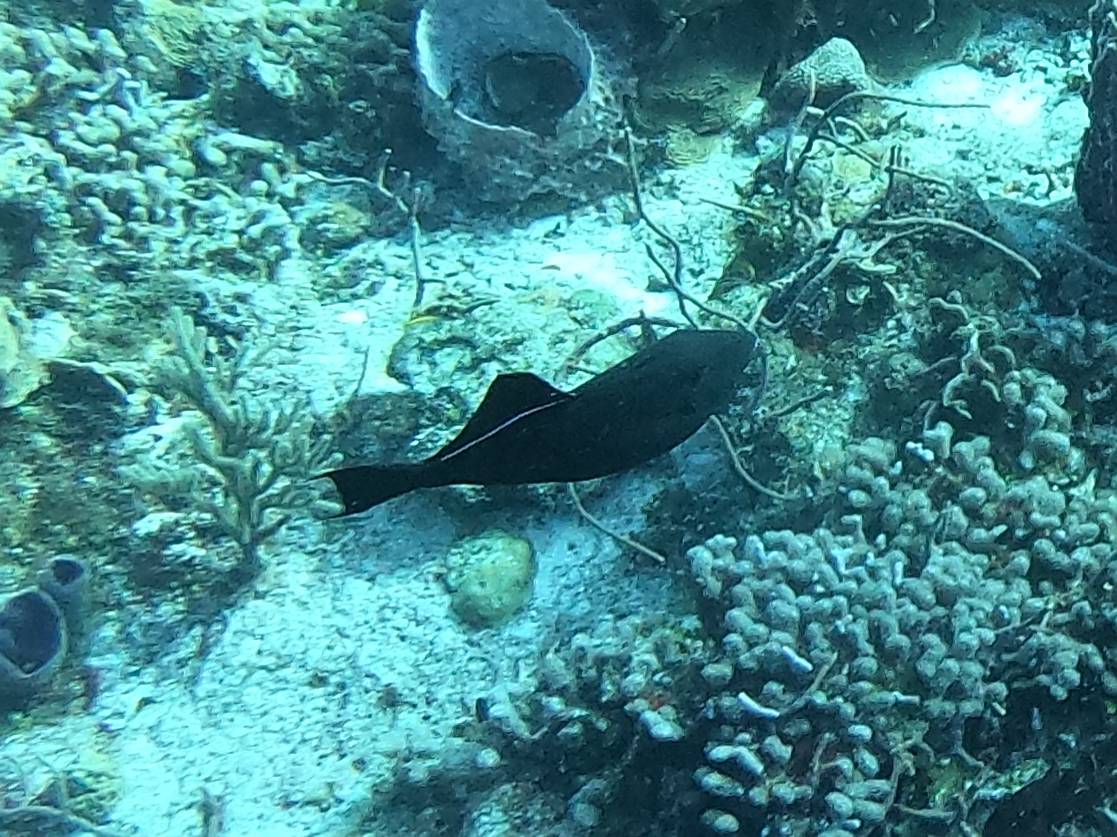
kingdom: Animalia
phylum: Chordata
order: Tetraodontiformes
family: Balistidae
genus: Melichthys
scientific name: Melichthys niger
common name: Black durgon
